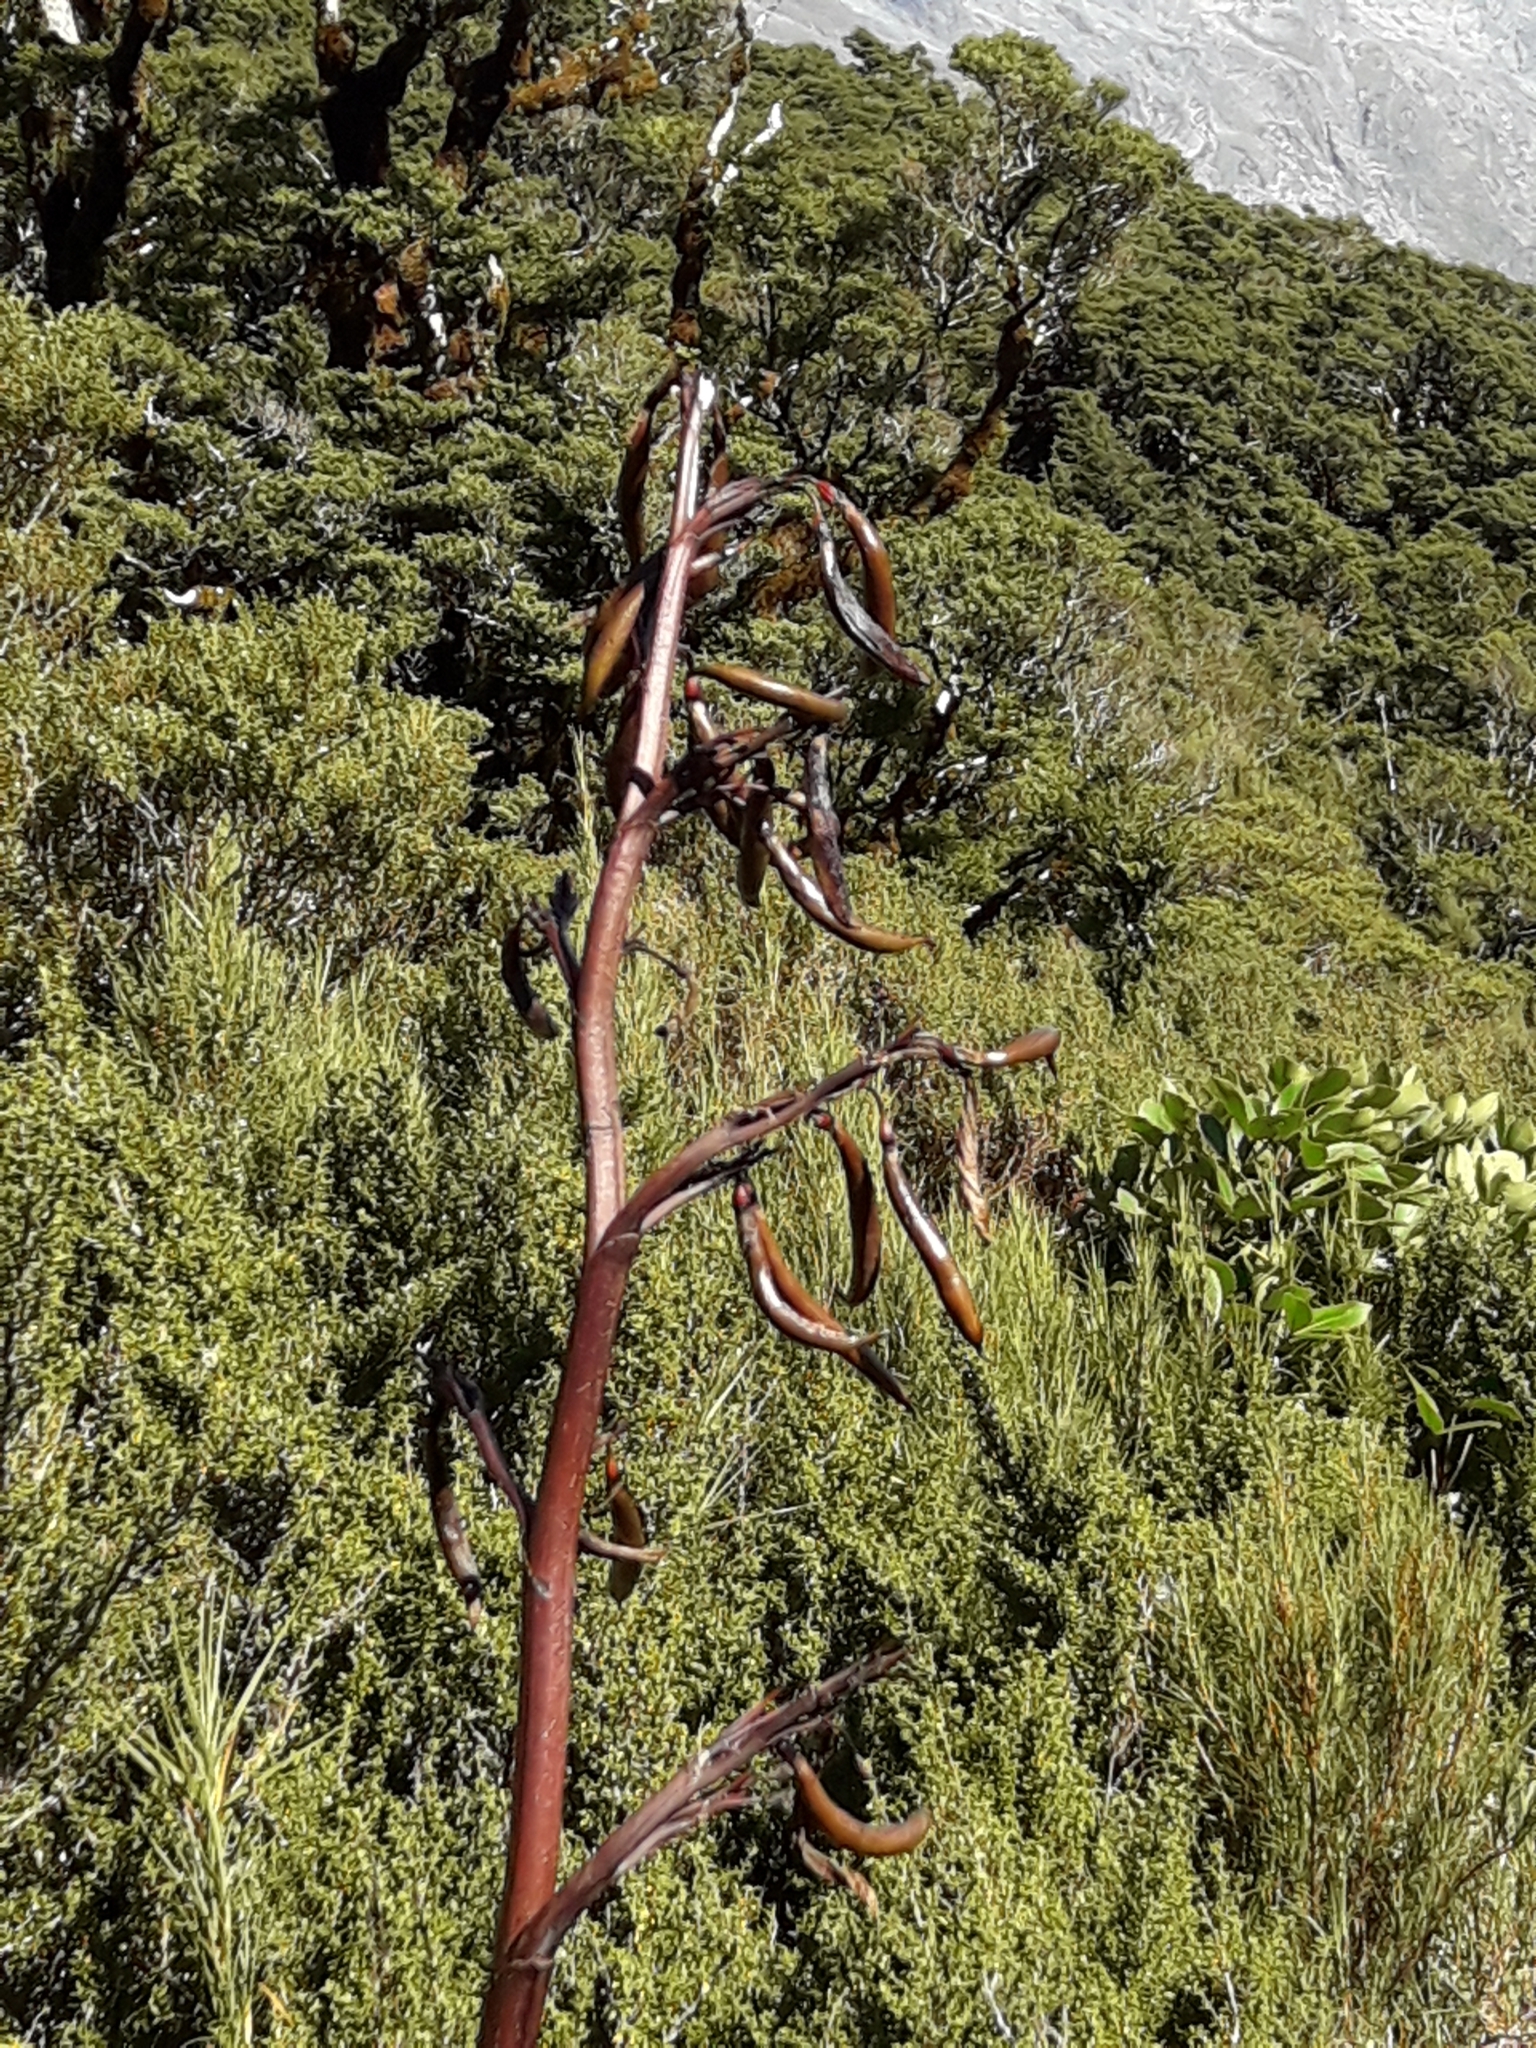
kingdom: Plantae
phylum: Tracheophyta
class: Liliopsida
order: Asparagales
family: Asphodelaceae
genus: Phormium
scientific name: Phormium colensoi
